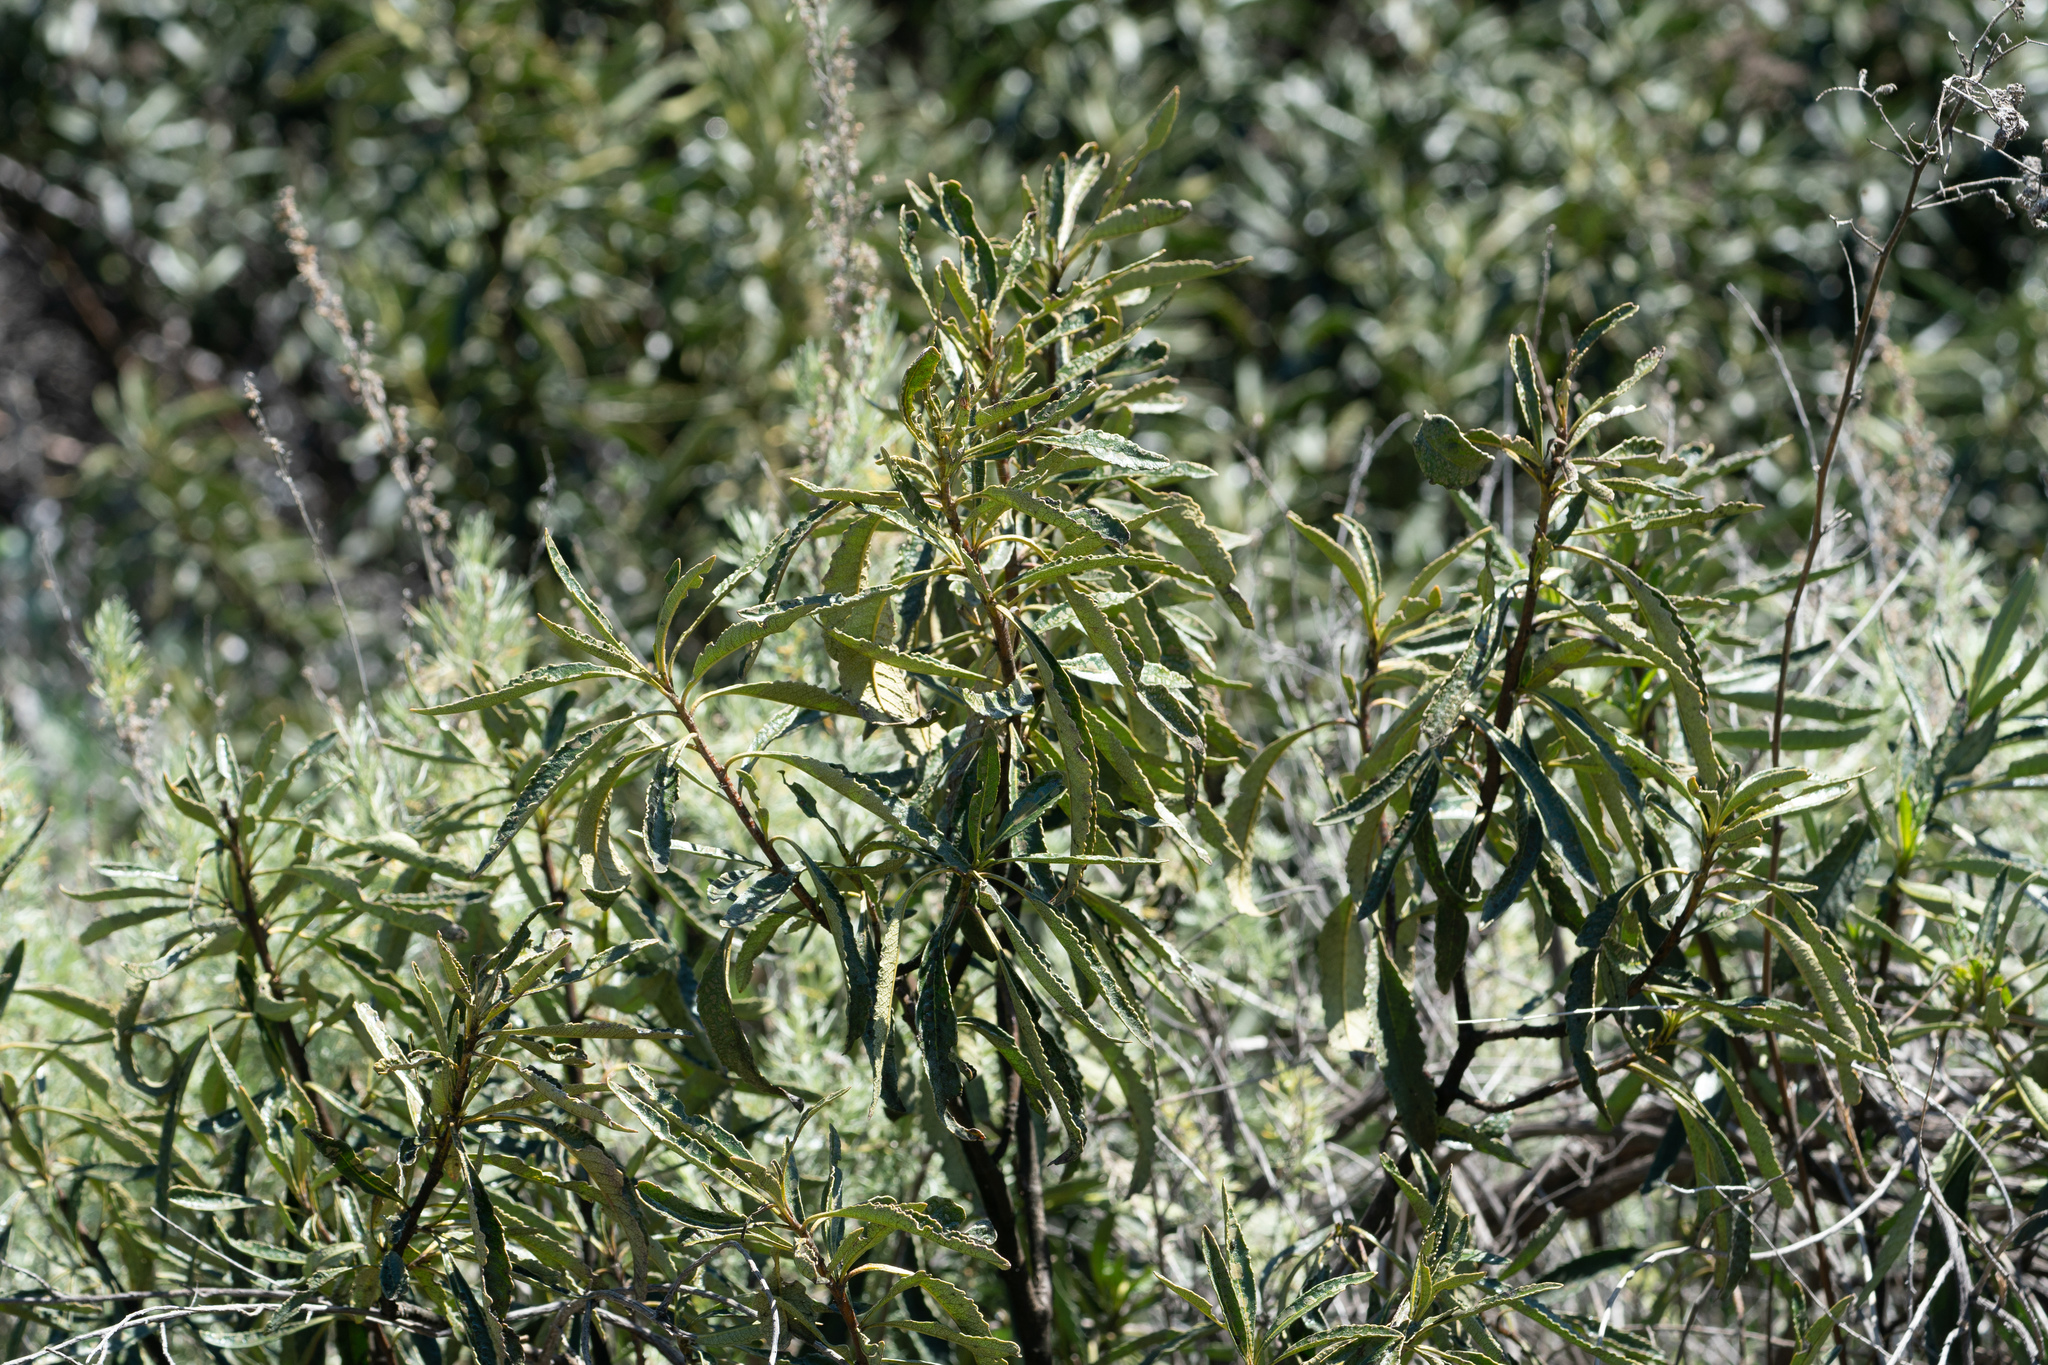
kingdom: Plantae
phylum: Tracheophyta
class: Magnoliopsida
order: Boraginales
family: Namaceae
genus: Eriodictyon
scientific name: Eriodictyon trichocalyx
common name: Hairy yerba-santa
